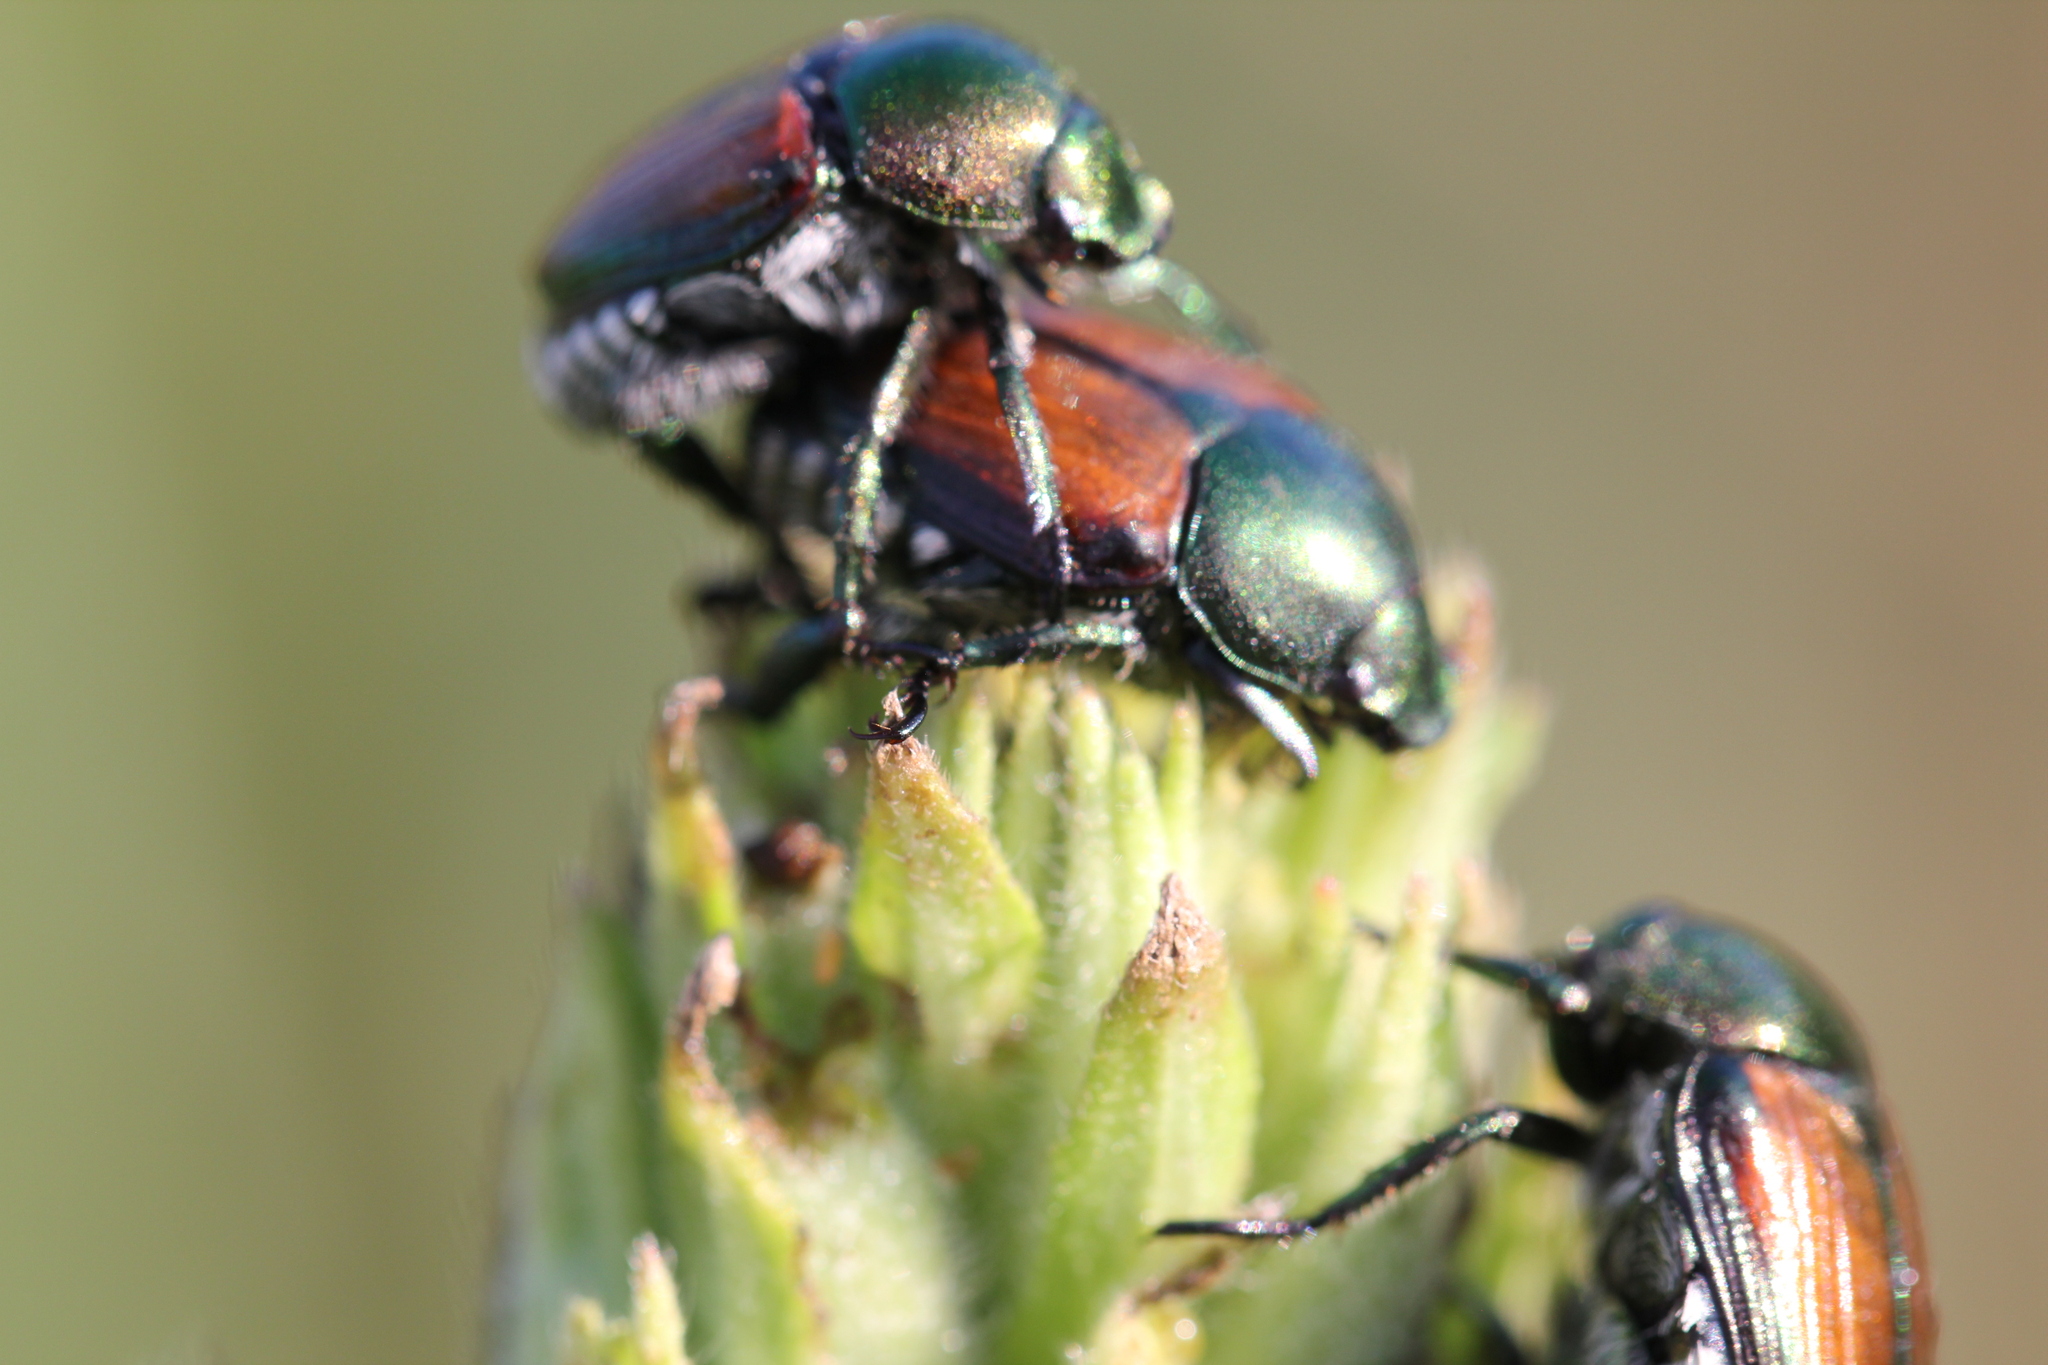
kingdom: Animalia
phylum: Arthropoda
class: Insecta
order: Coleoptera
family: Scarabaeidae
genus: Popillia
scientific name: Popillia japonica
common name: Japanese beetle
